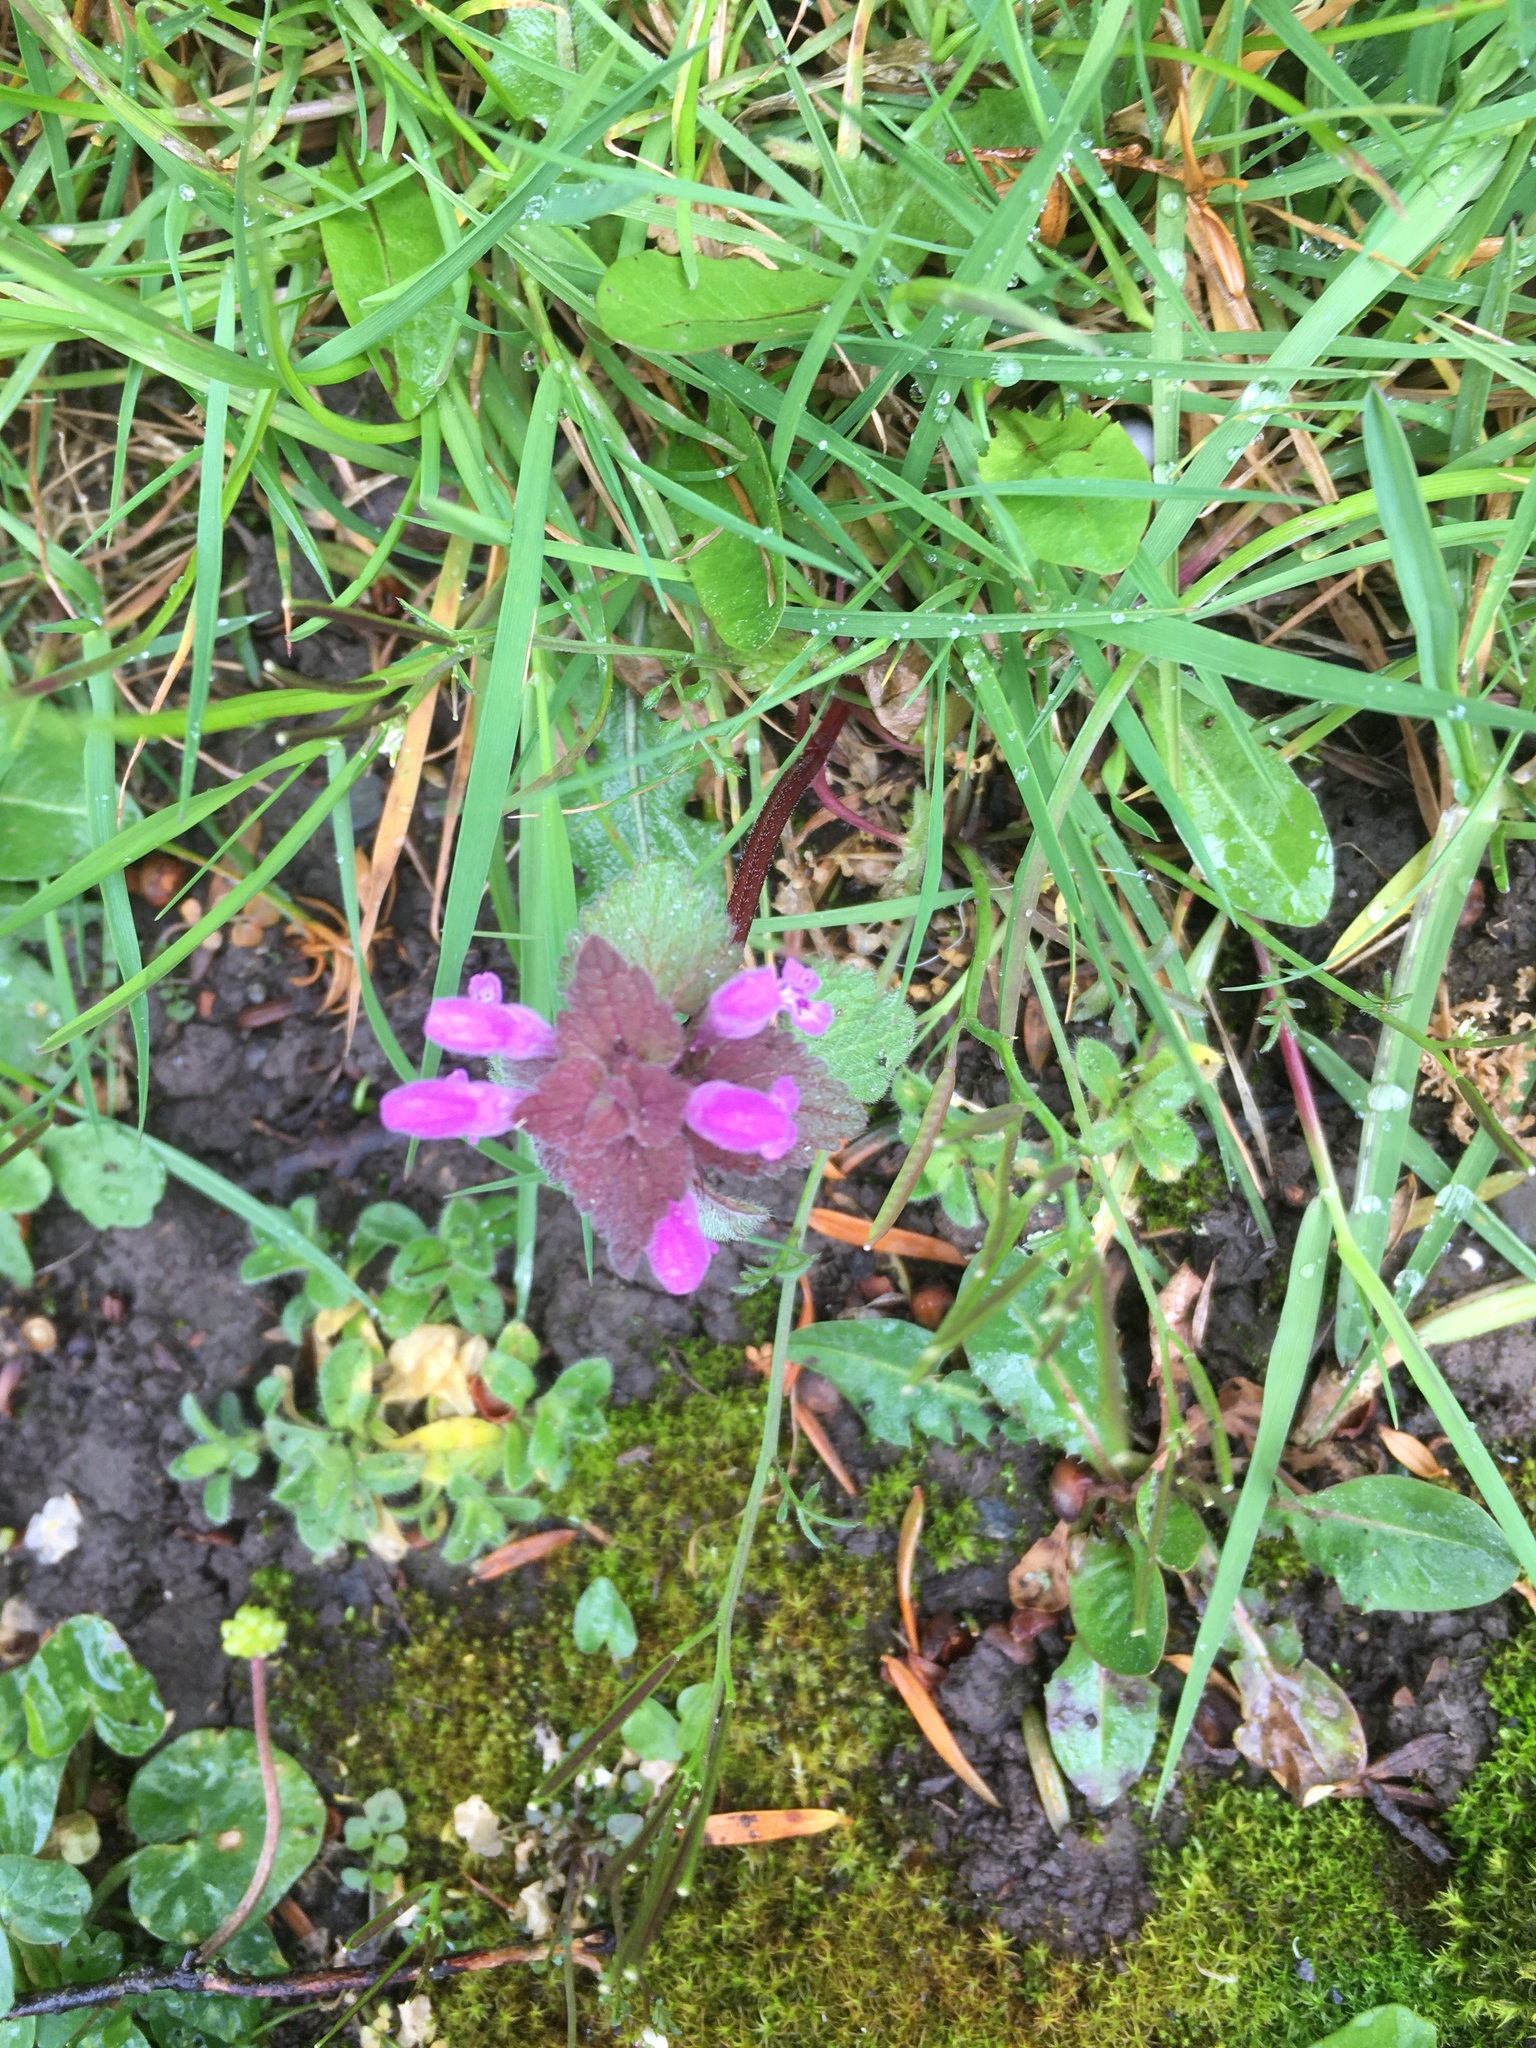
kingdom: Plantae
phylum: Tracheophyta
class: Magnoliopsida
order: Lamiales
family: Lamiaceae
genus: Lamium
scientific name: Lamium purpureum
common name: Red dead-nettle
